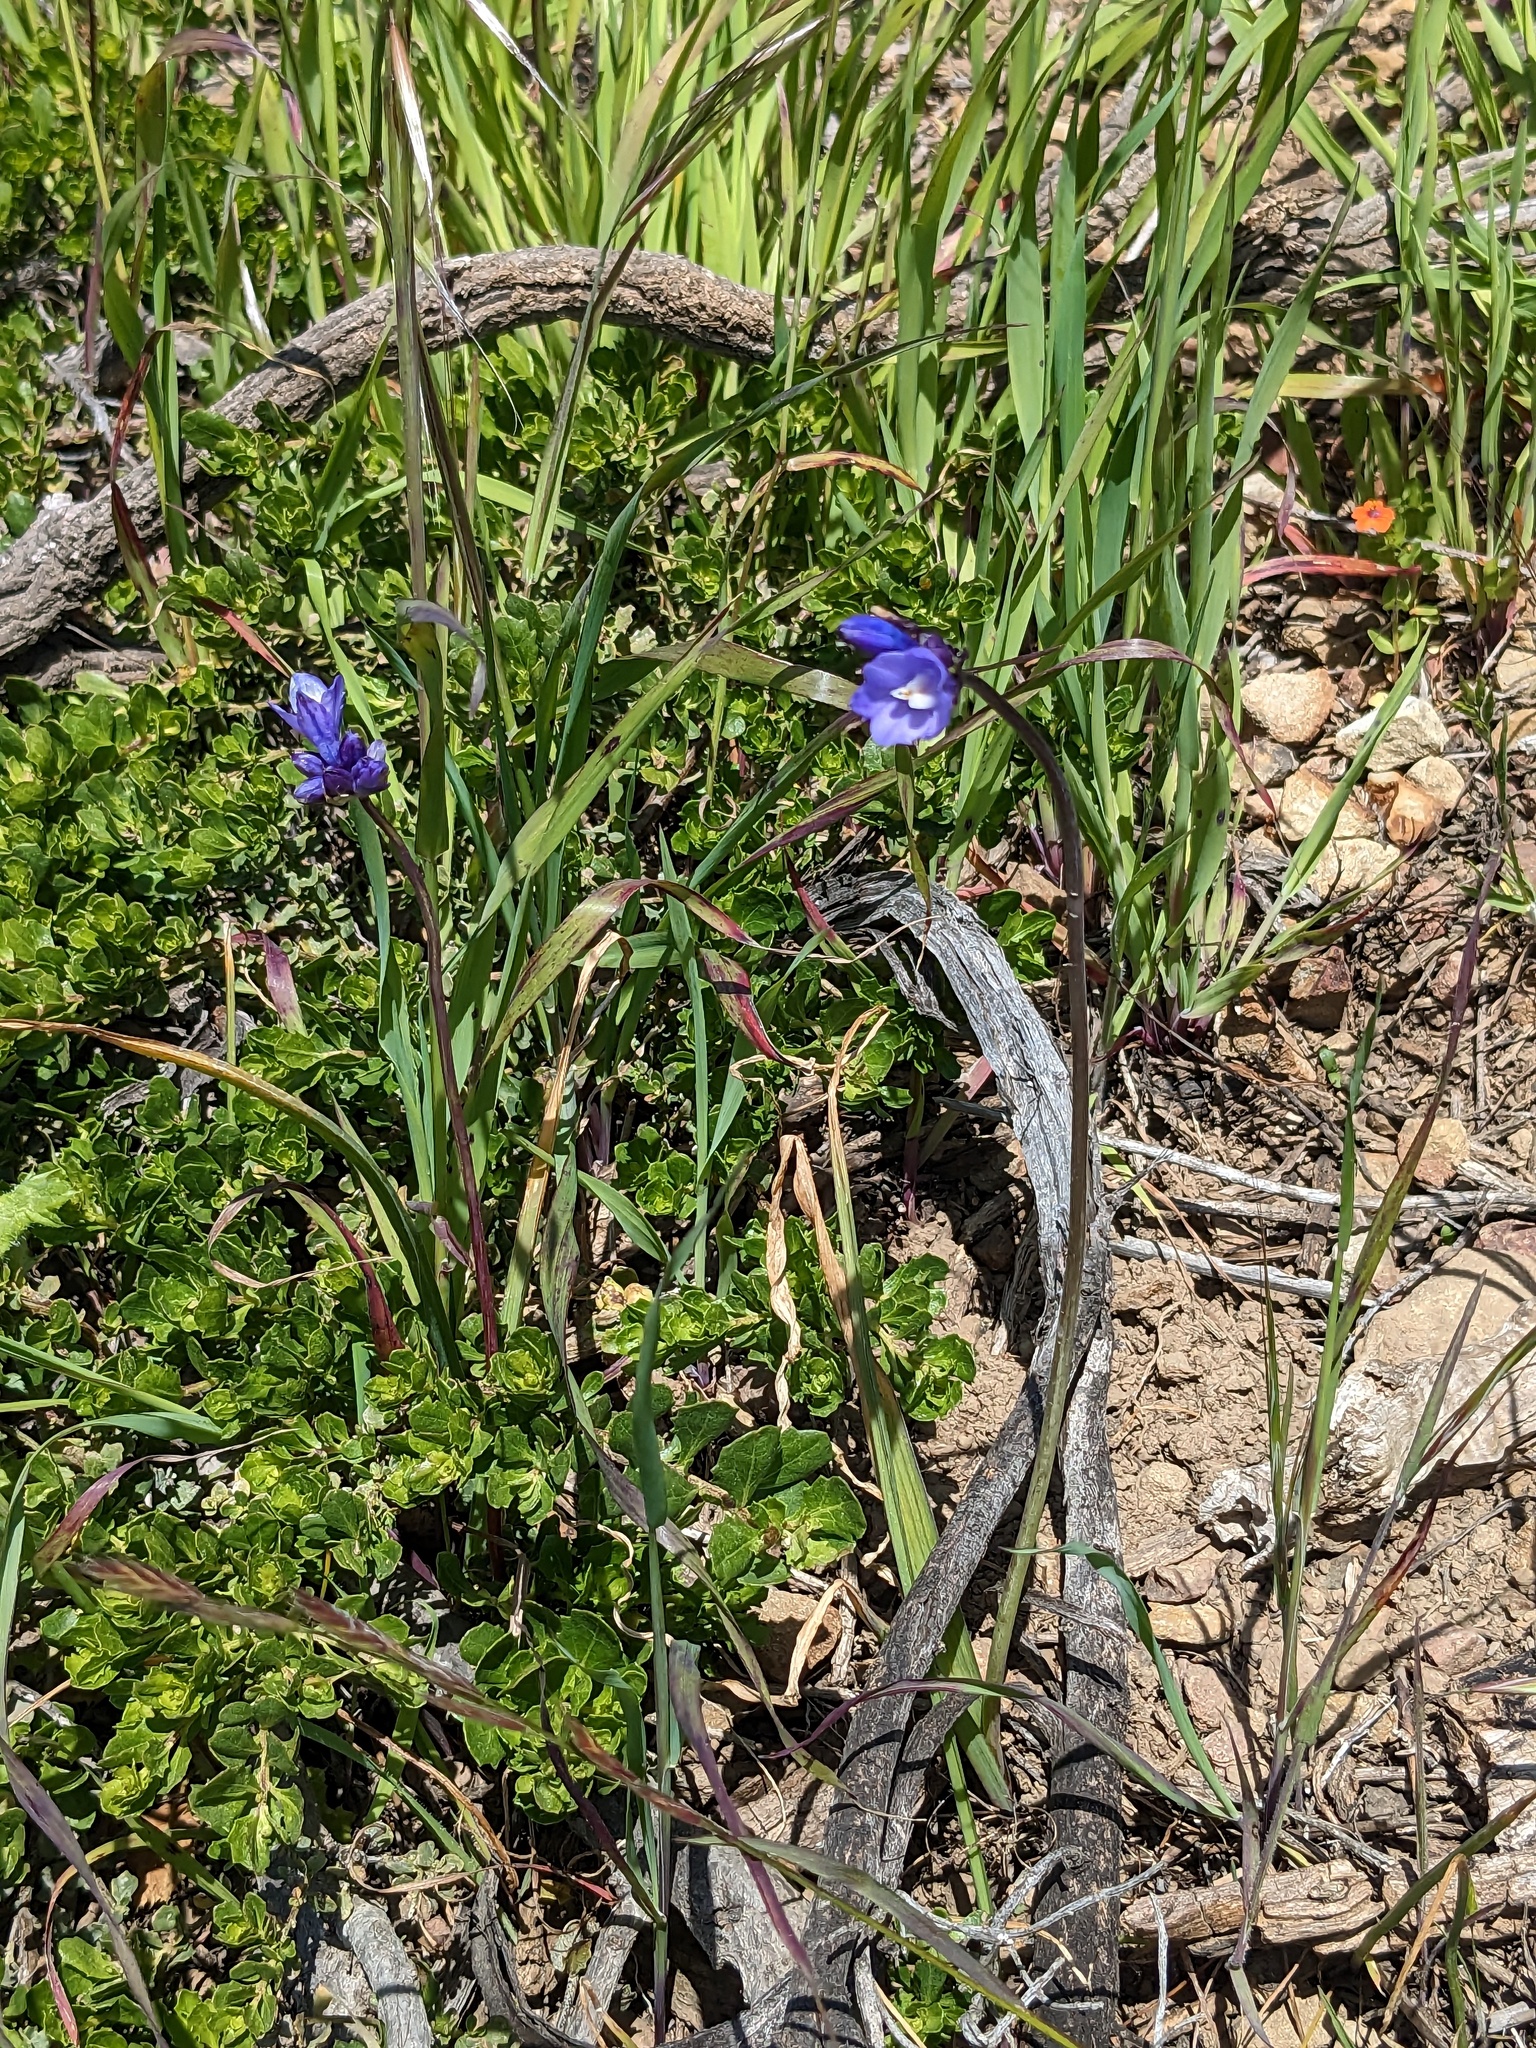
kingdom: Plantae
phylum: Tracheophyta
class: Liliopsida
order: Asparagales
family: Asparagaceae
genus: Dipterostemon
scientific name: Dipterostemon capitatus
